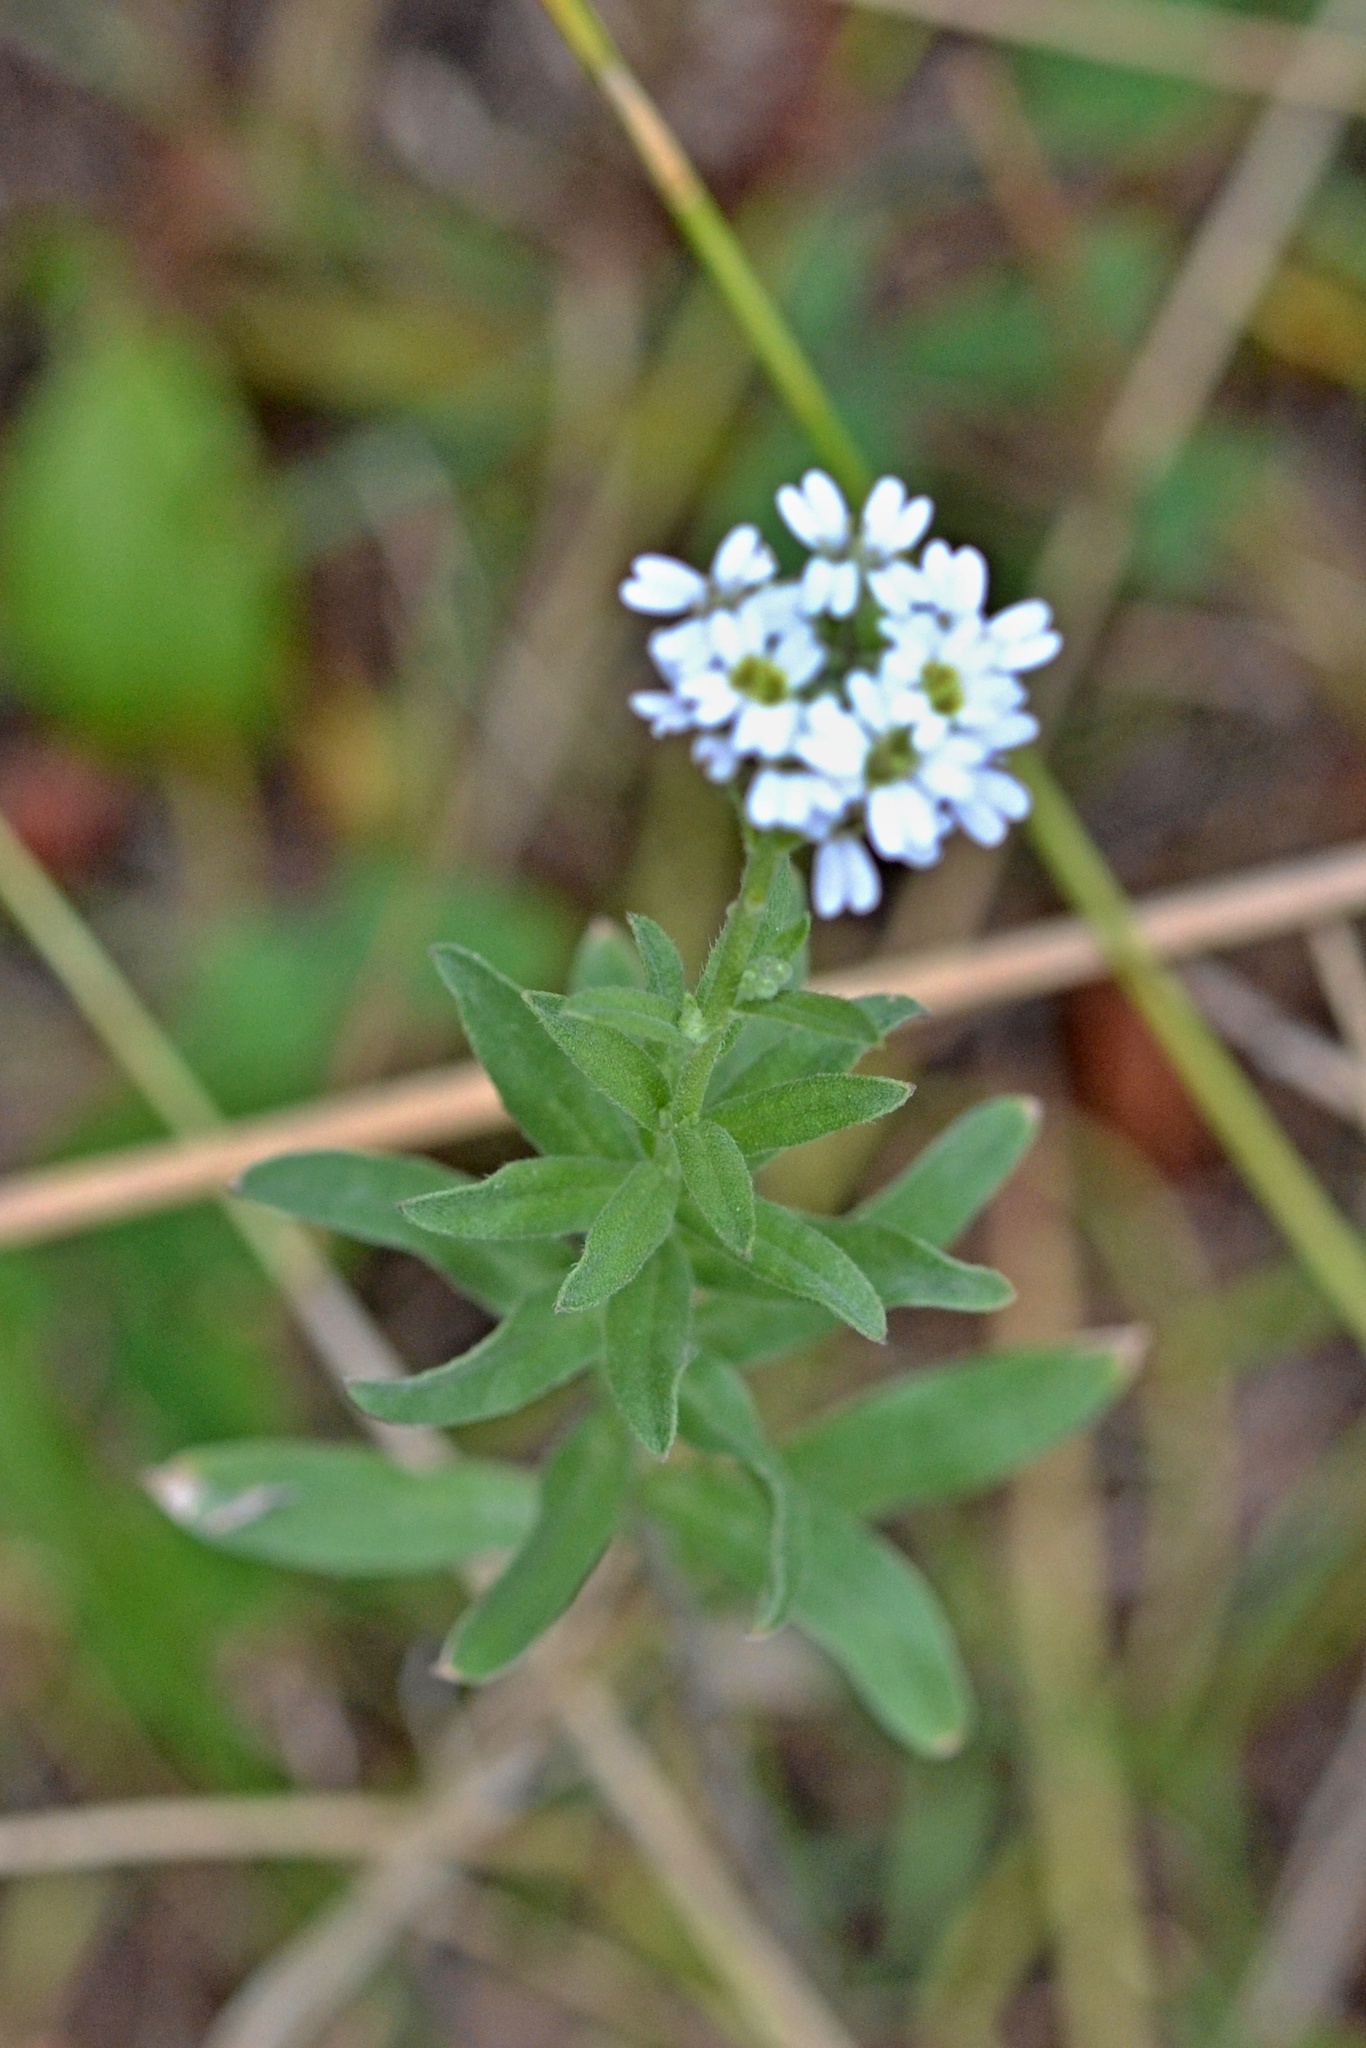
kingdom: Plantae
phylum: Tracheophyta
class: Magnoliopsida
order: Brassicales
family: Brassicaceae
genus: Berteroa
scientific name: Berteroa incana
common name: Hoary alison
